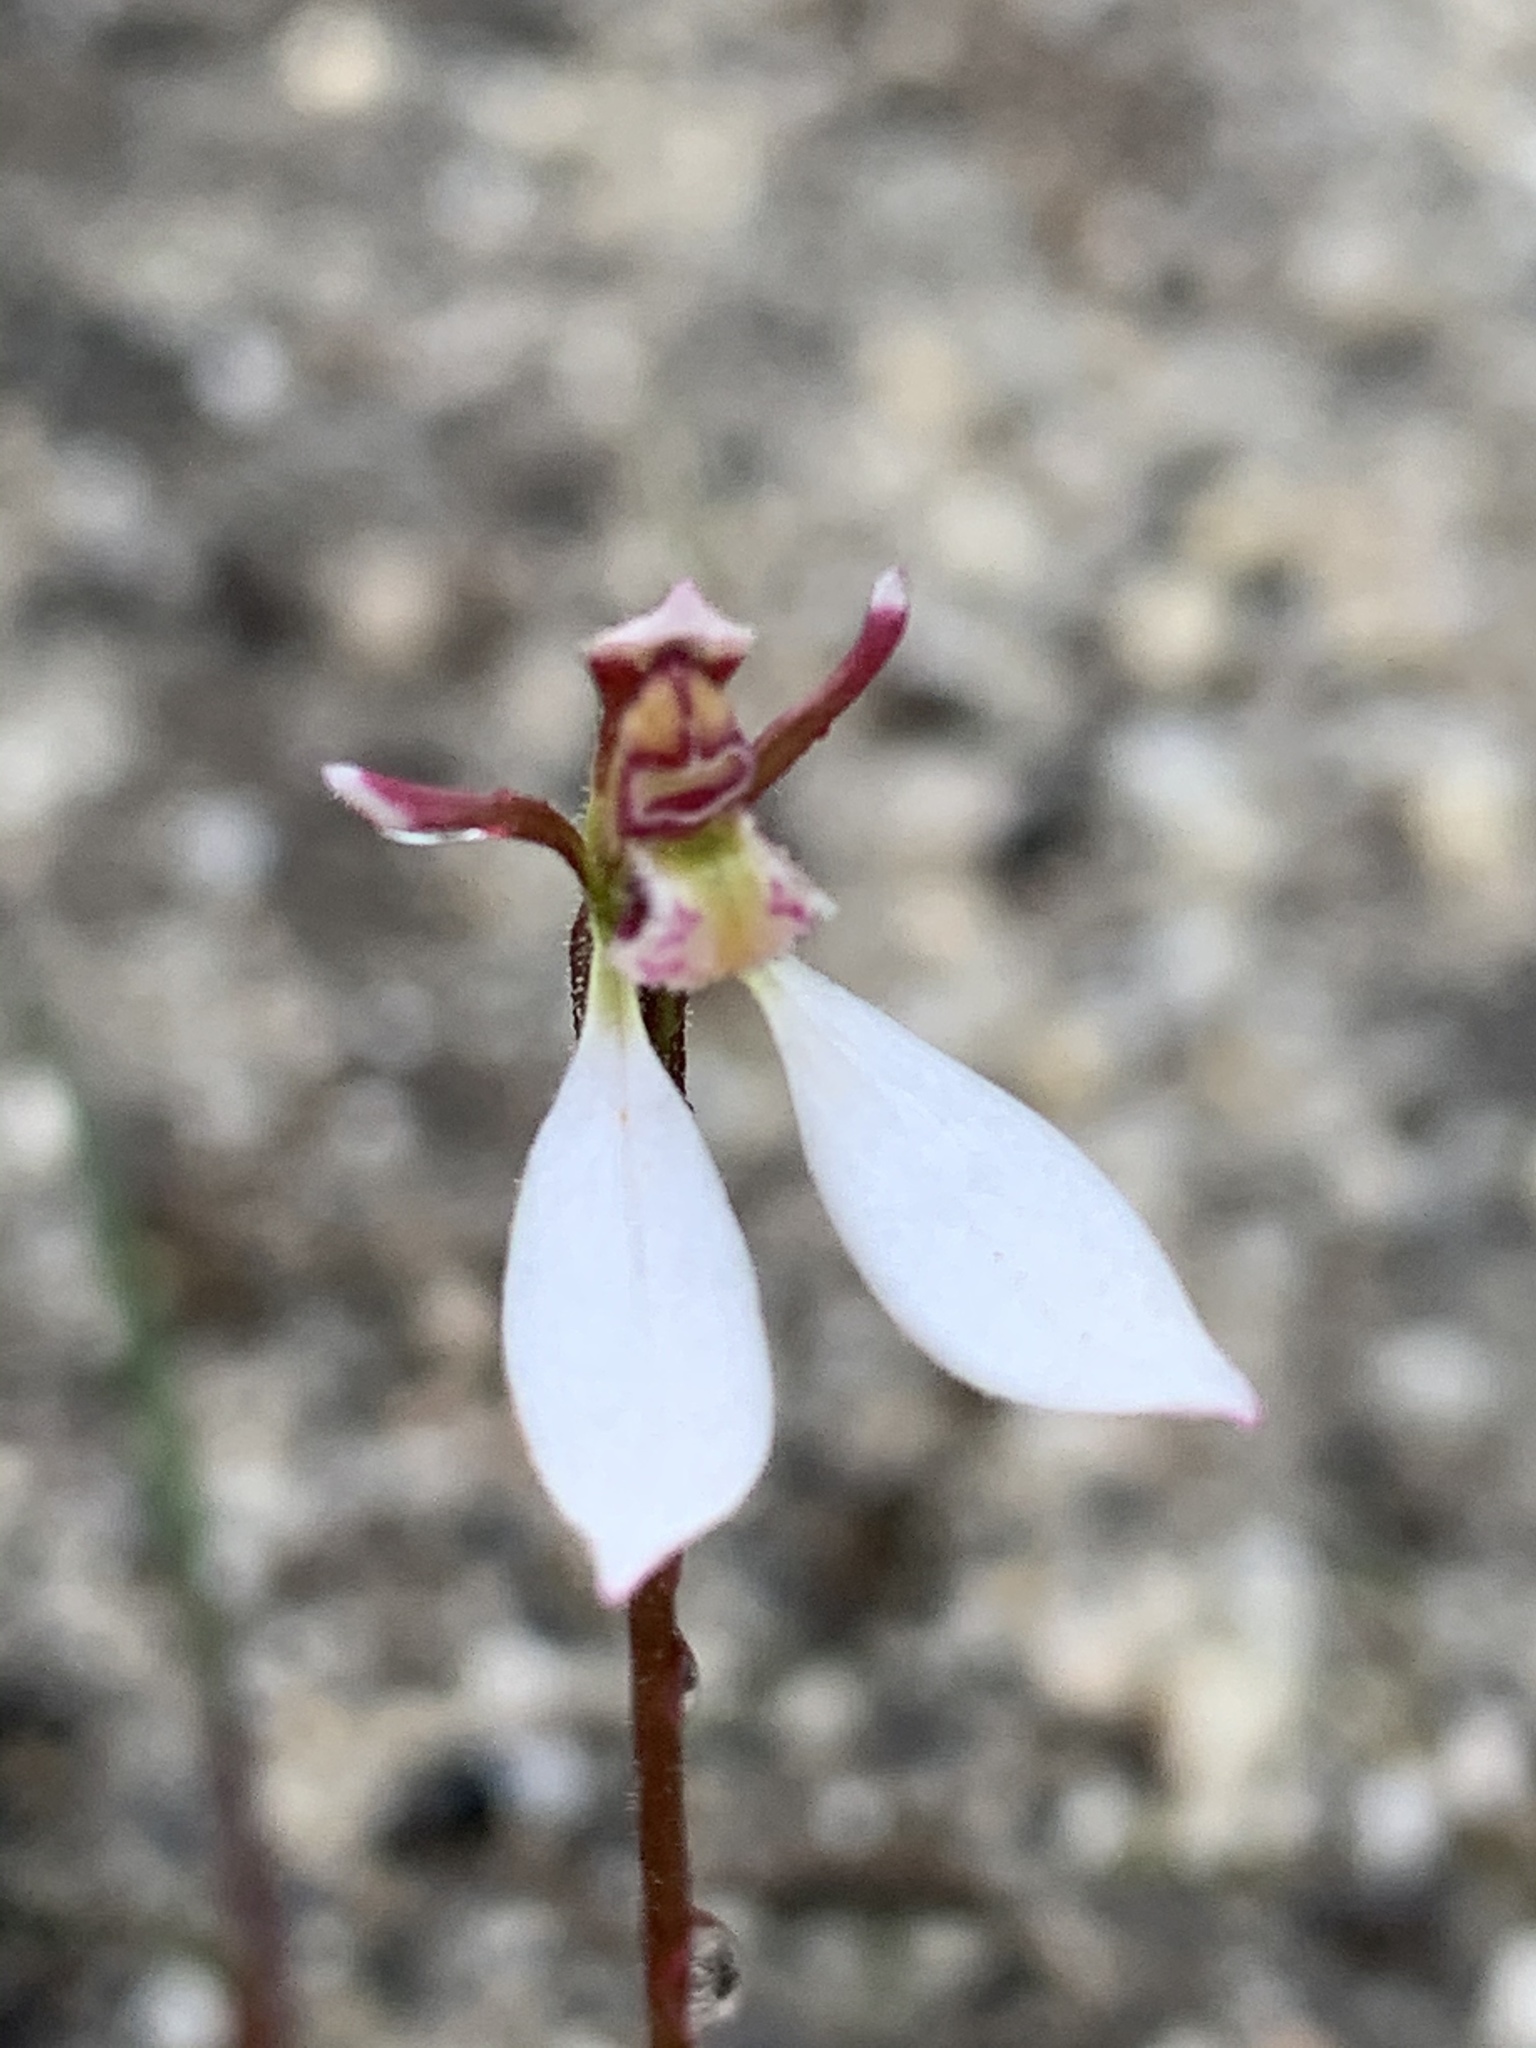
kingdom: Plantae
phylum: Tracheophyta
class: Liliopsida
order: Asparagales
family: Orchidaceae
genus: Eriochilus
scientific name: Eriochilus cucullatus
